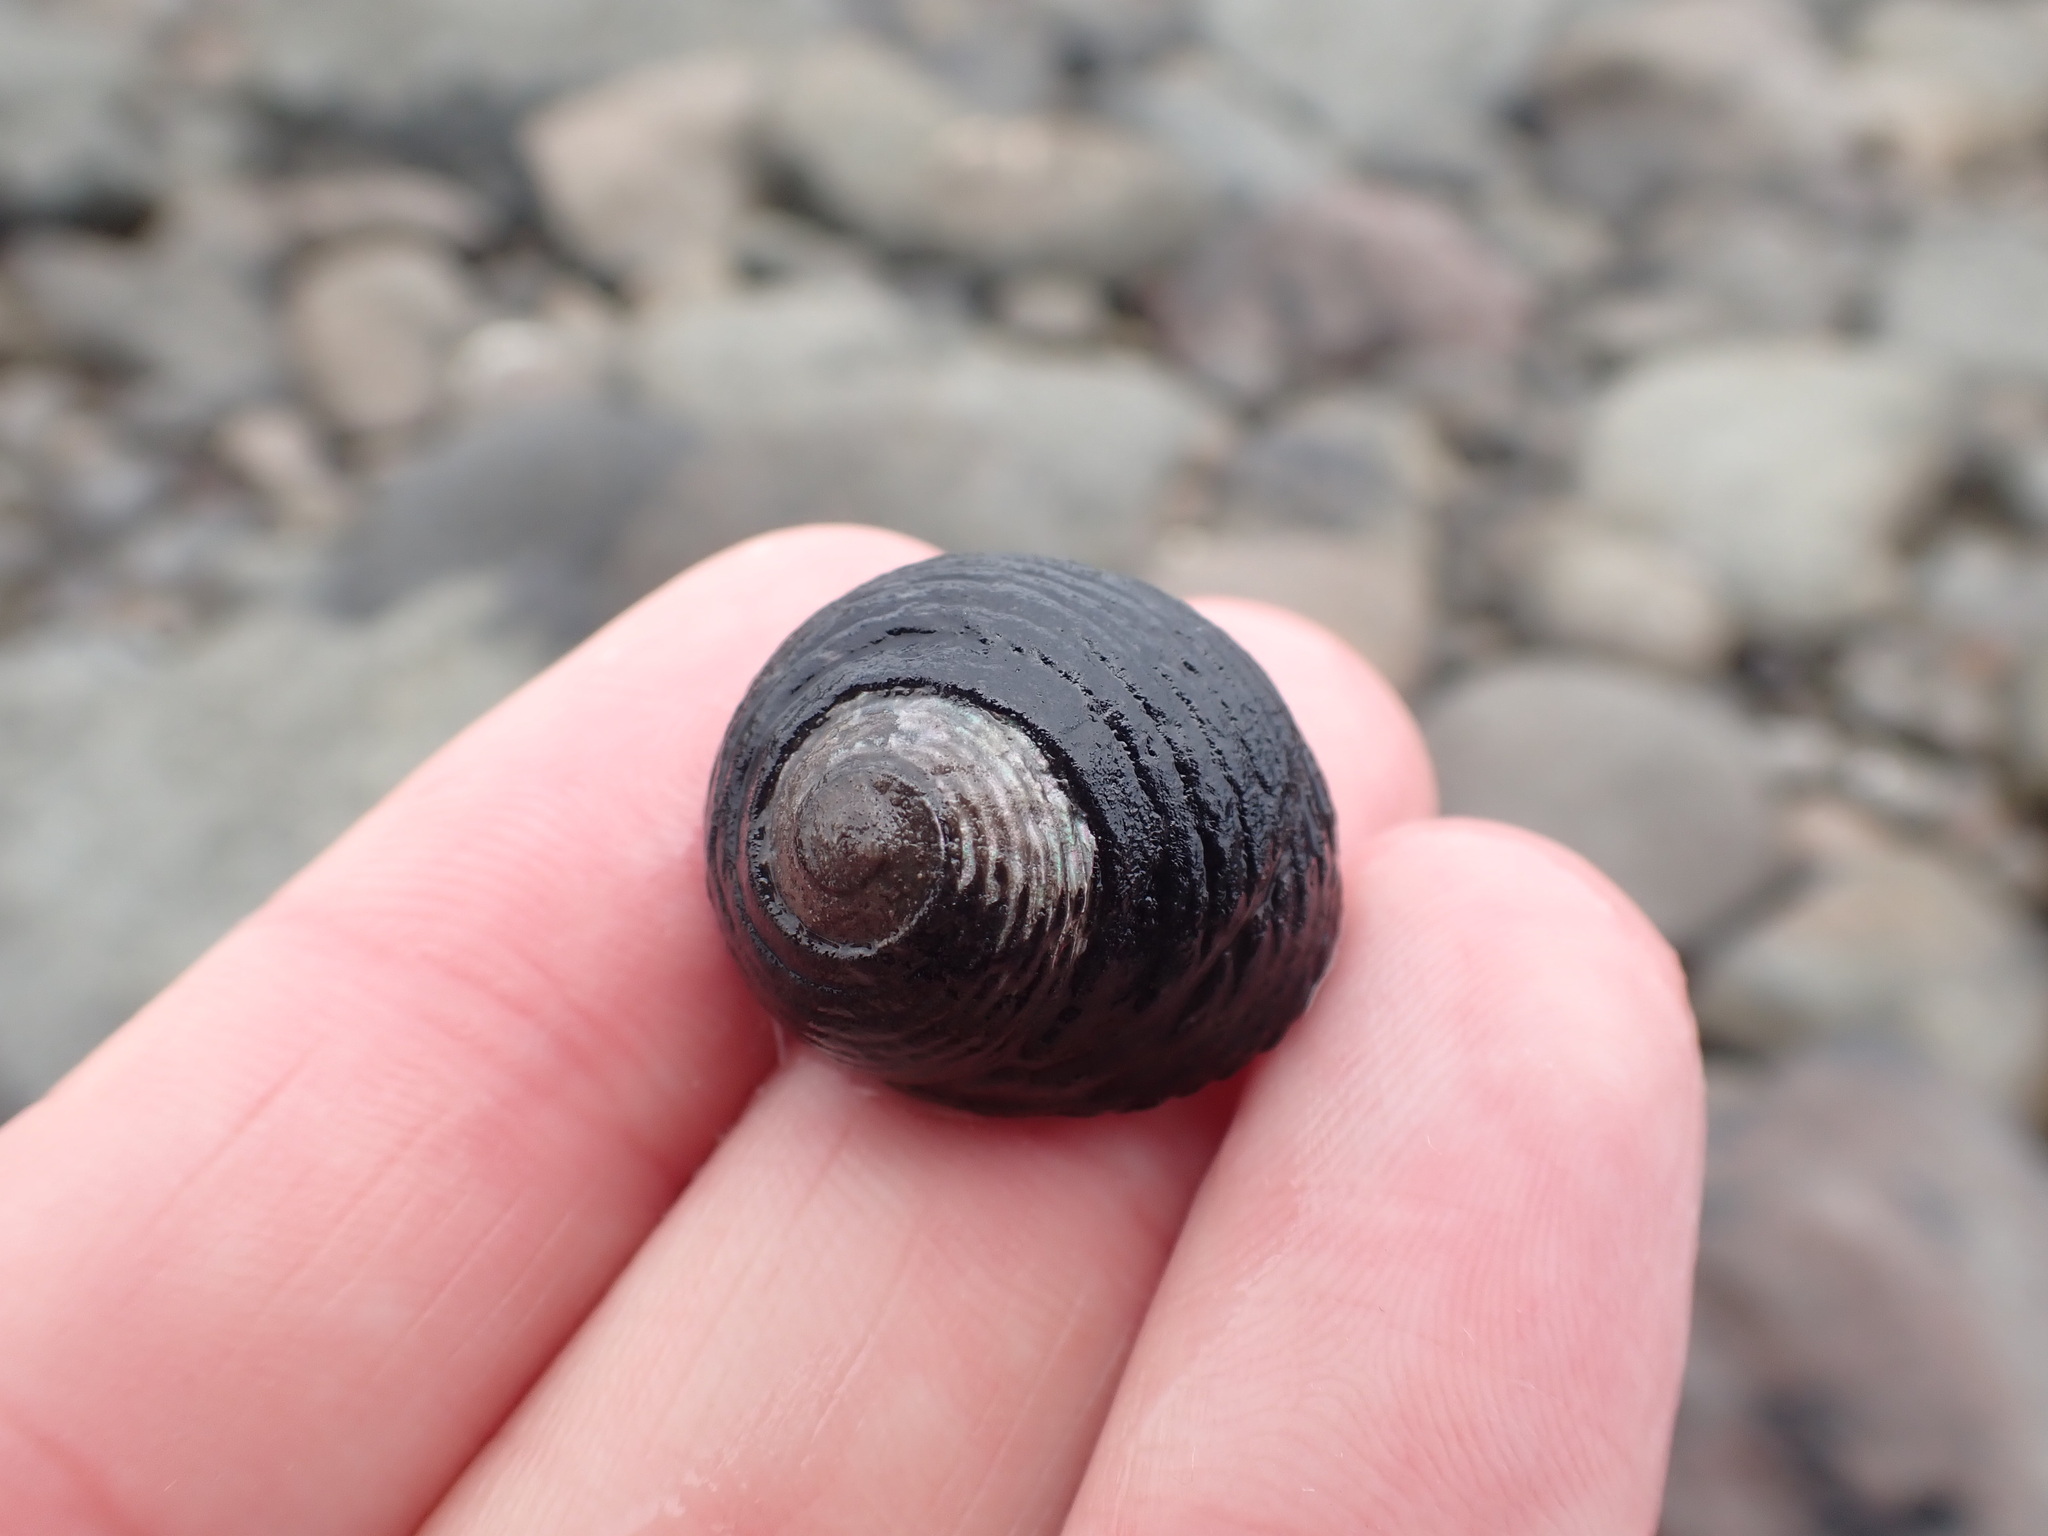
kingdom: Animalia
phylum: Mollusca
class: Gastropoda
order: Trochida
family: Trochidae
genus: Diloma
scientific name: Diloma zelandicum
